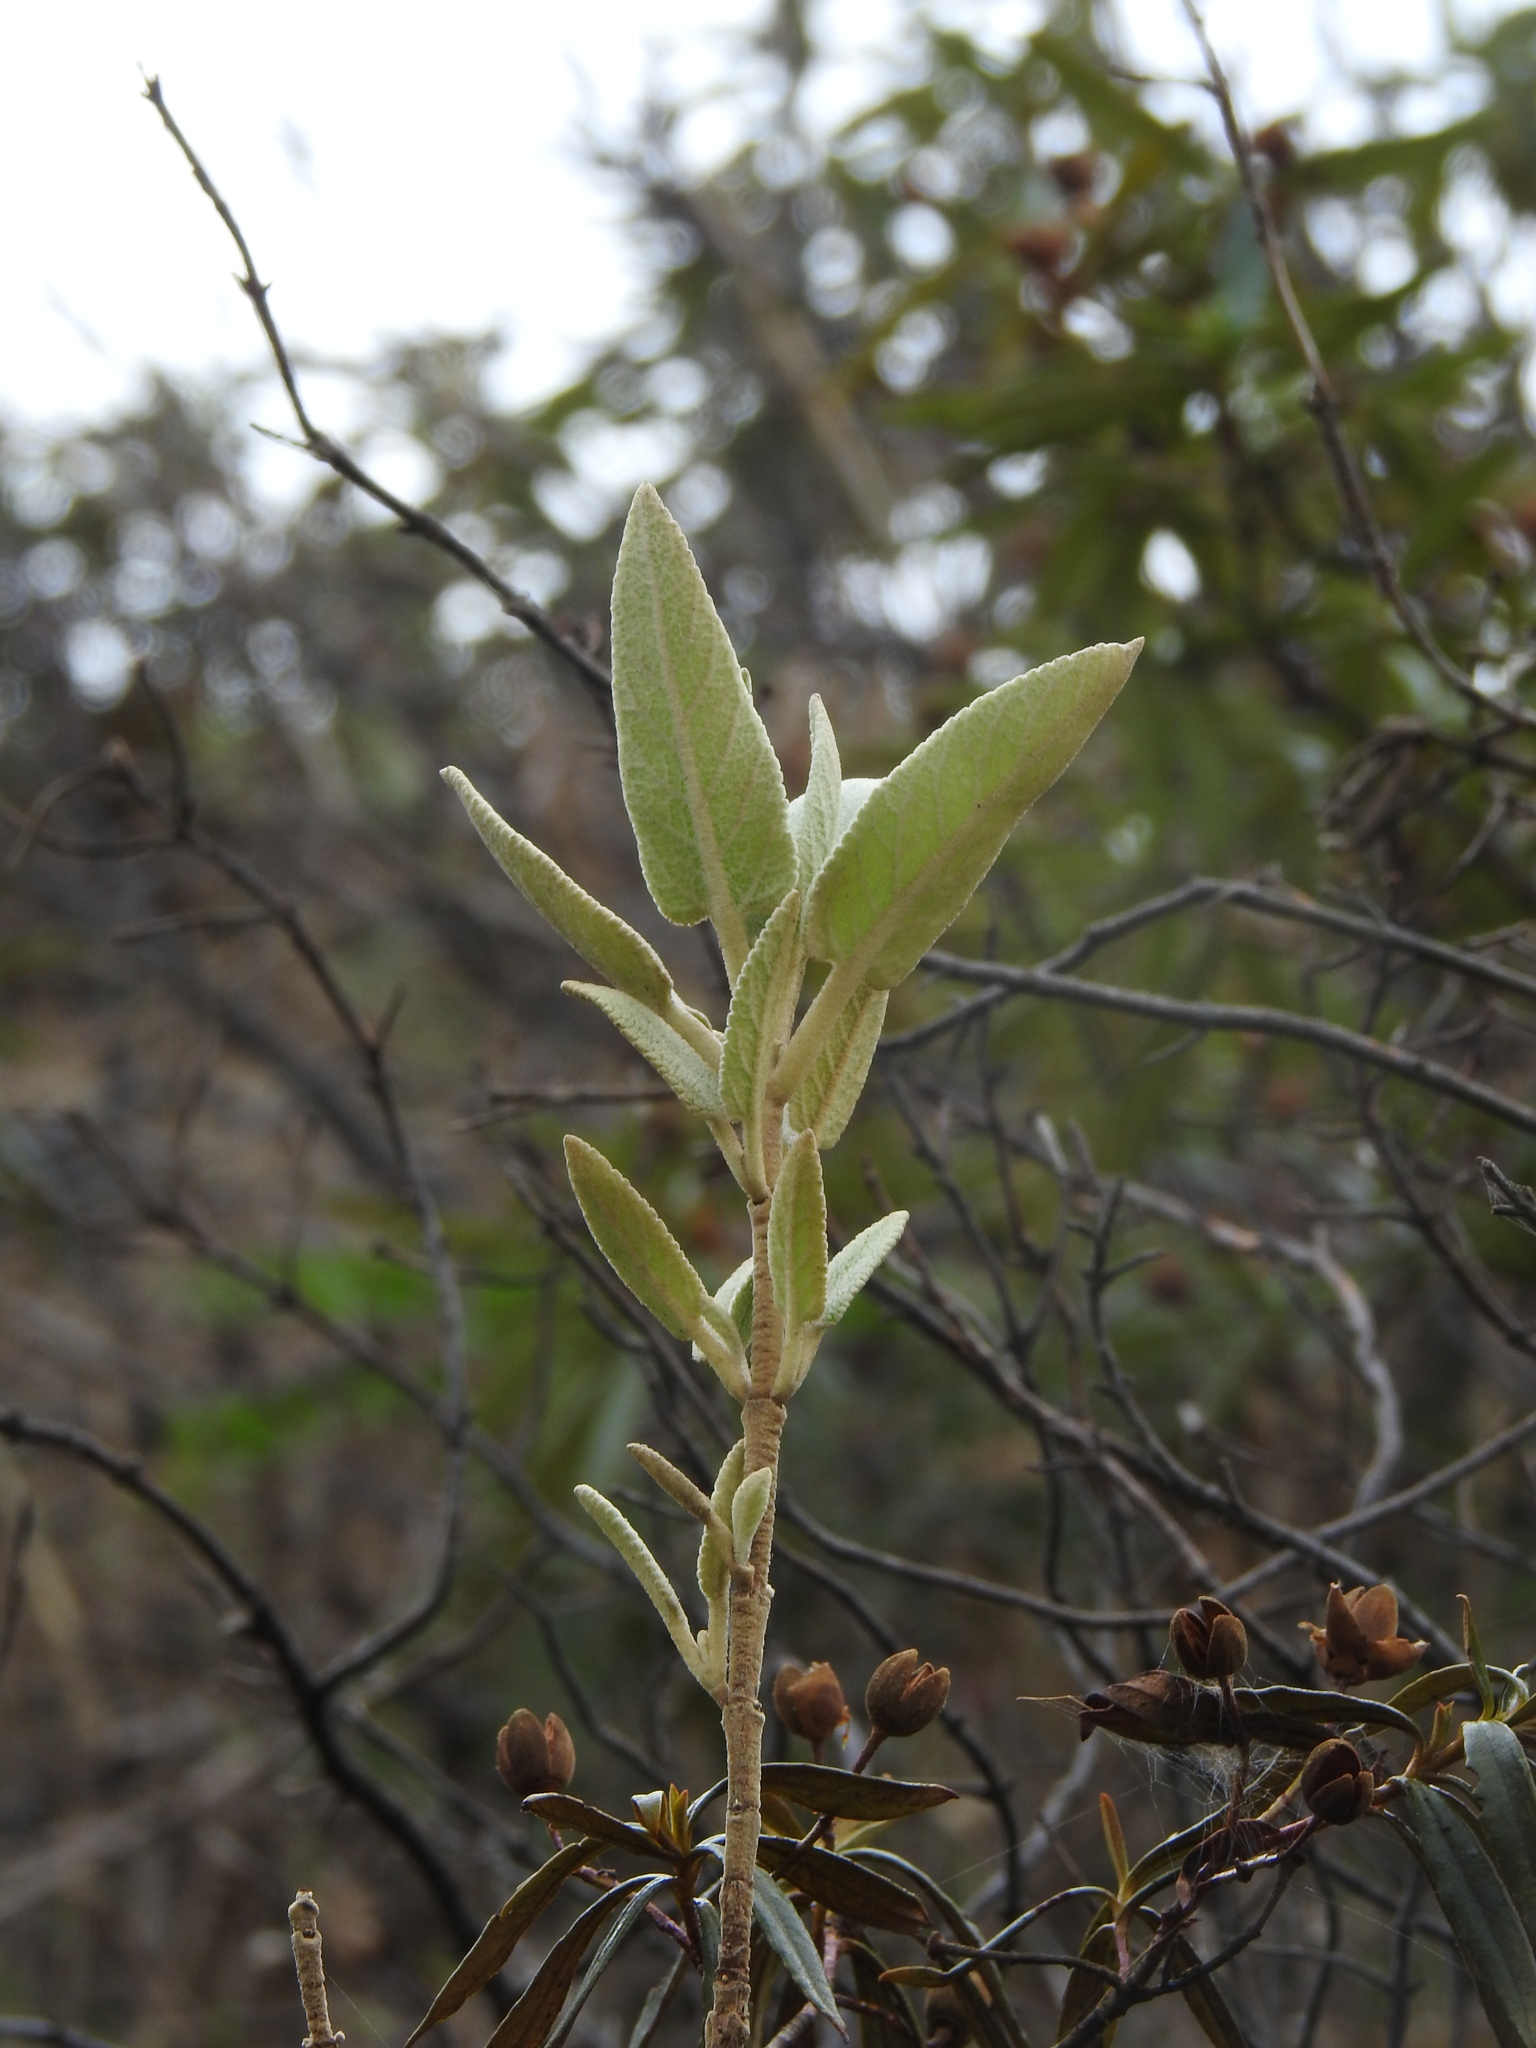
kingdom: Plantae
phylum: Tracheophyta
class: Magnoliopsida
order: Lamiales
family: Lamiaceae
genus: Phlomis
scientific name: Phlomis purpurea
